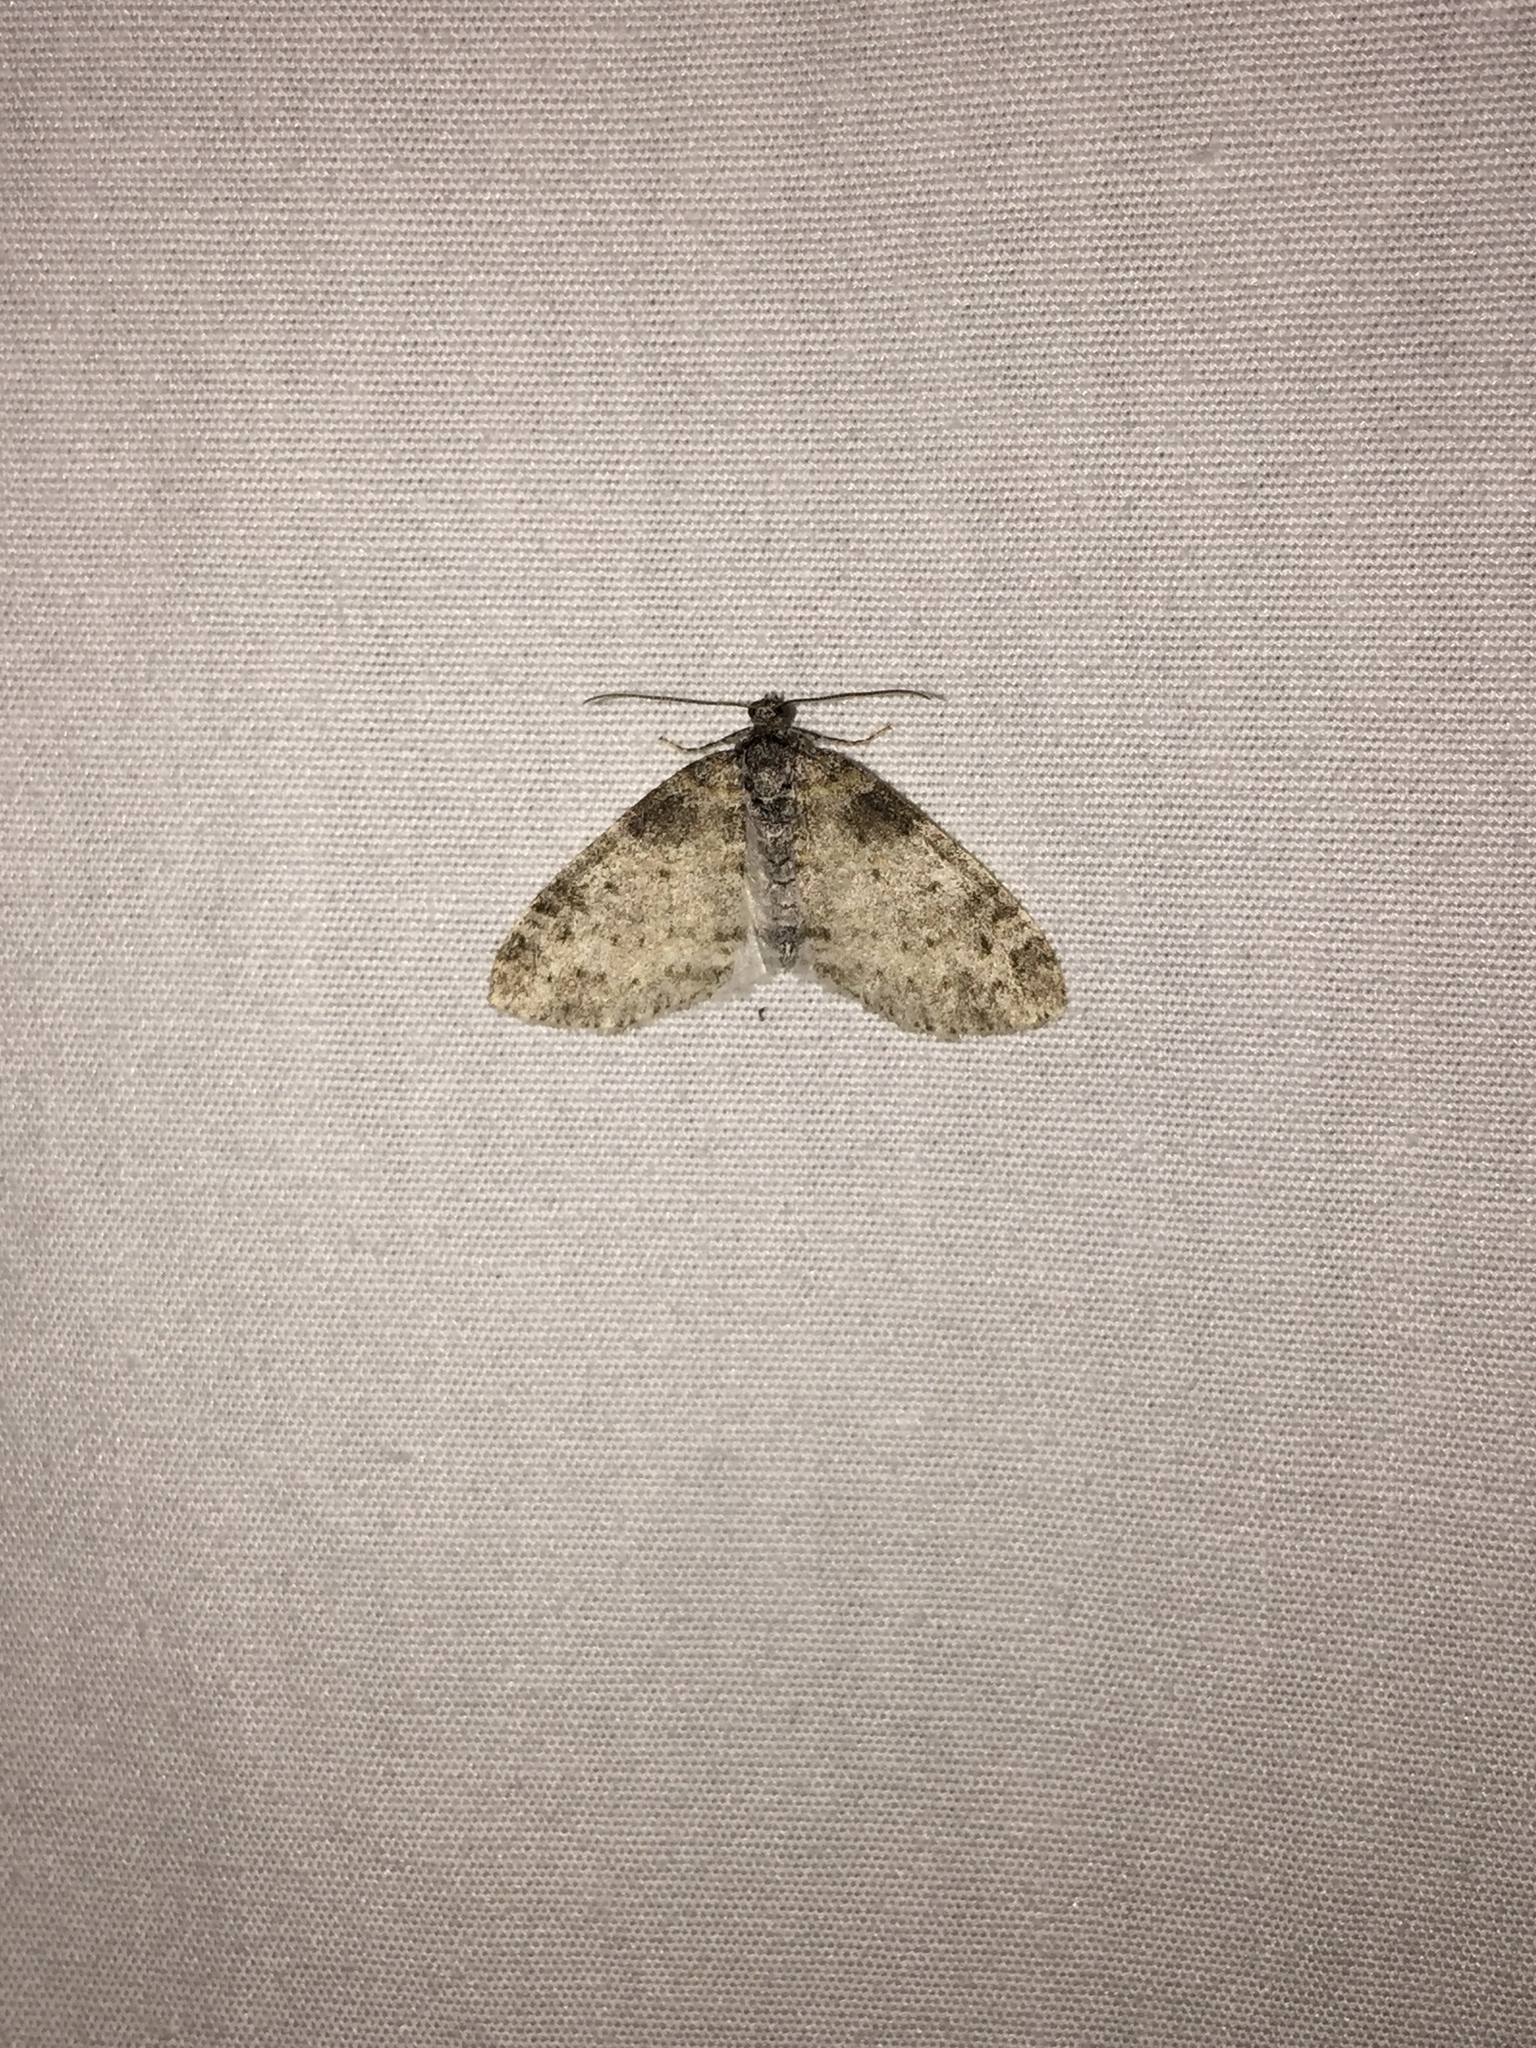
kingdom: Animalia
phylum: Arthropoda
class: Insecta
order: Lepidoptera
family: Geometridae
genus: Lobophora
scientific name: Lobophora nivigerata
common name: Powdered bigwing
